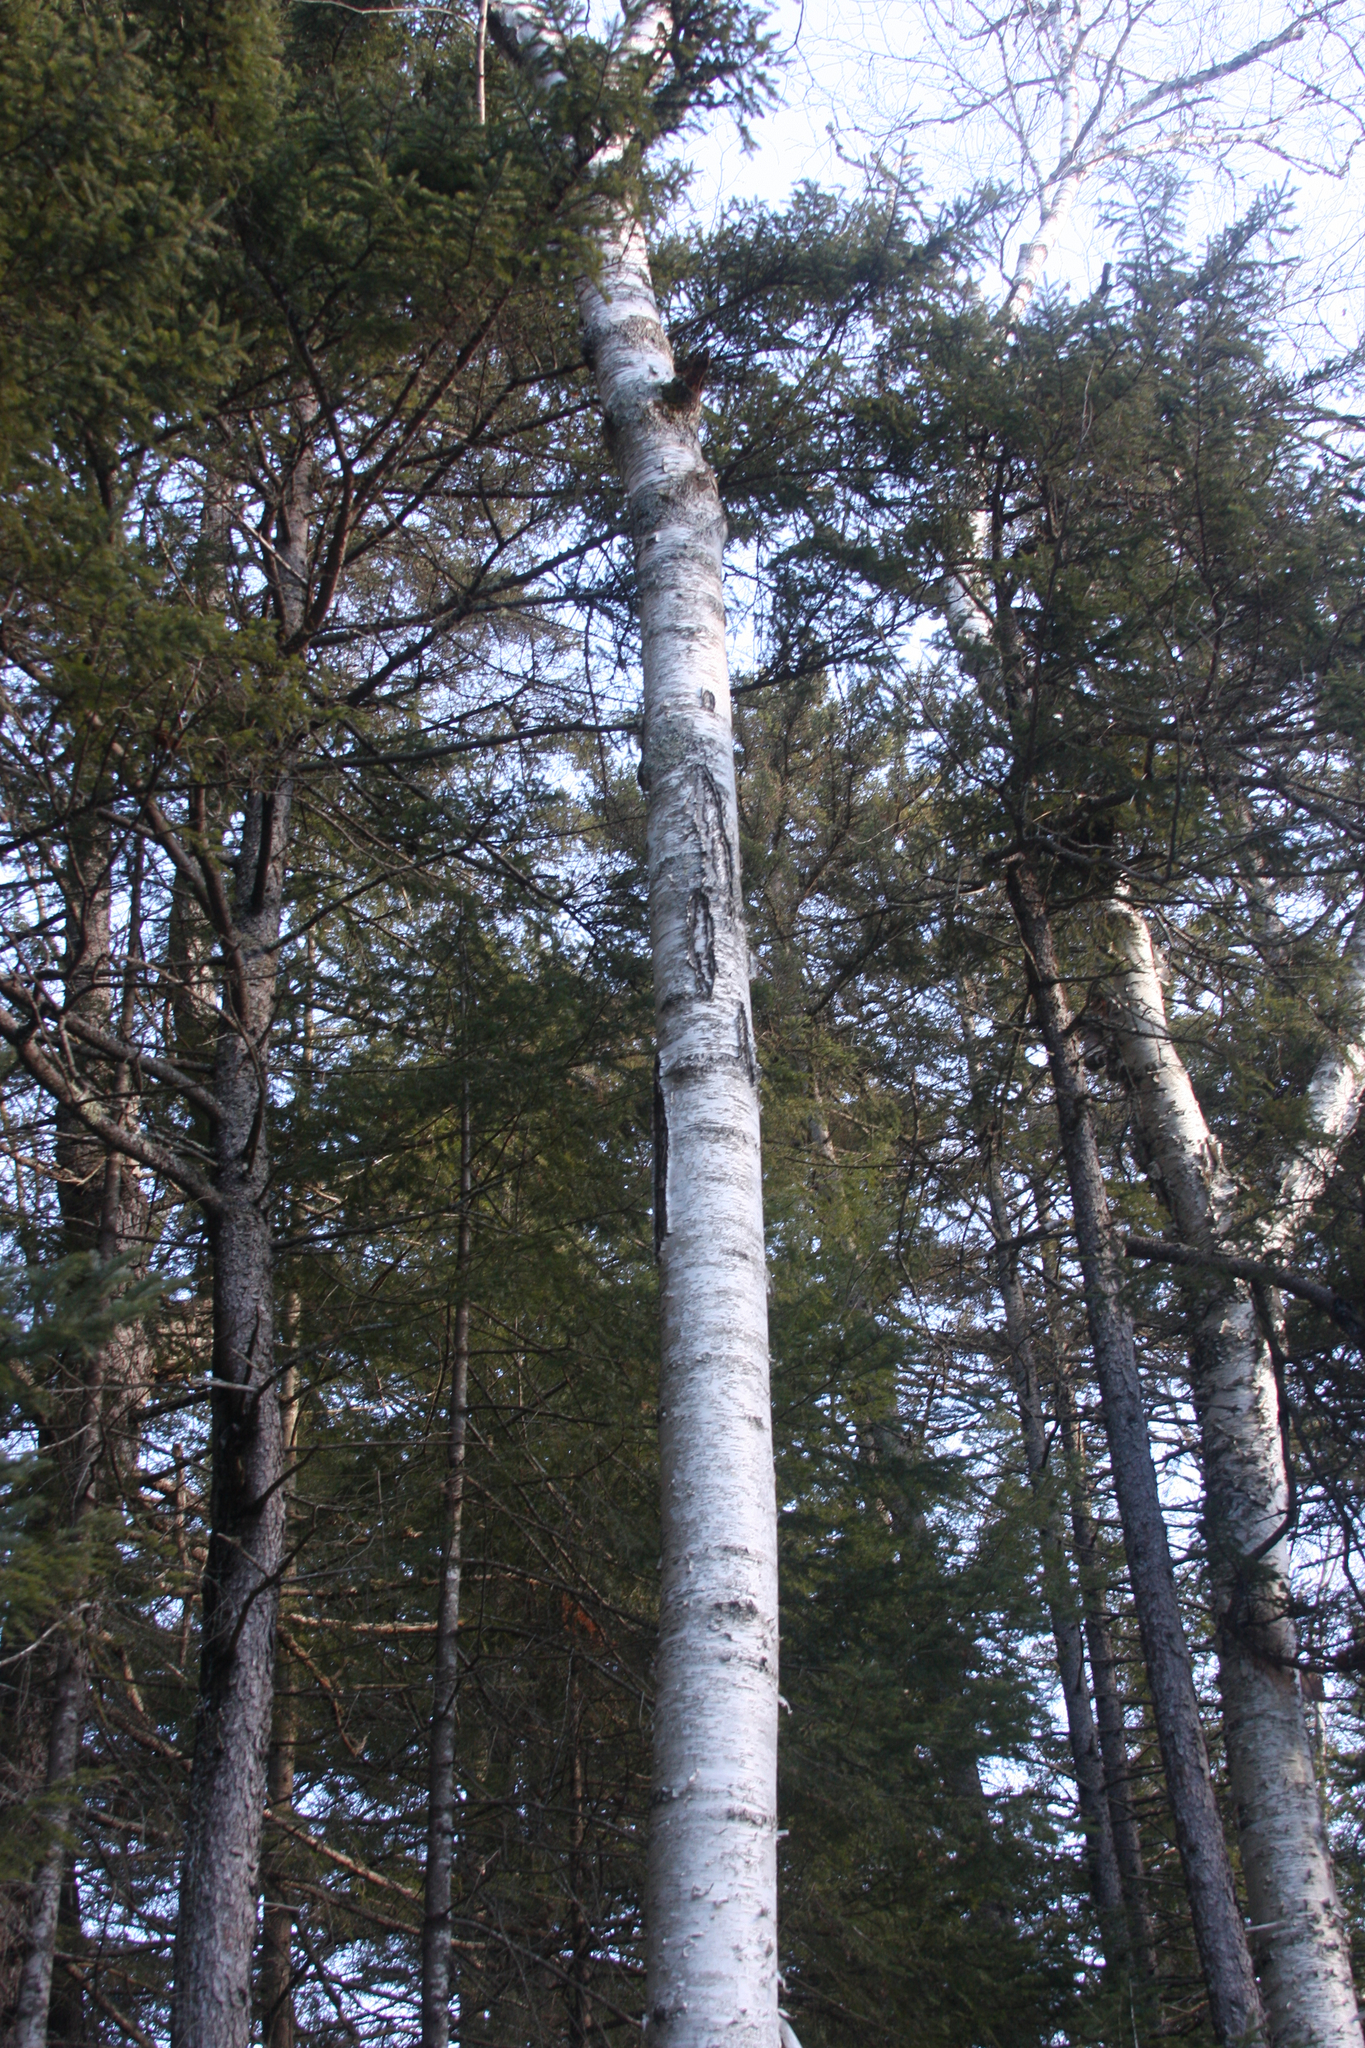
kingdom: Plantae
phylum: Tracheophyta
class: Magnoliopsida
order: Fagales
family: Betulaceae
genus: Betula
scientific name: Betula papyrifera
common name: Paper birch
